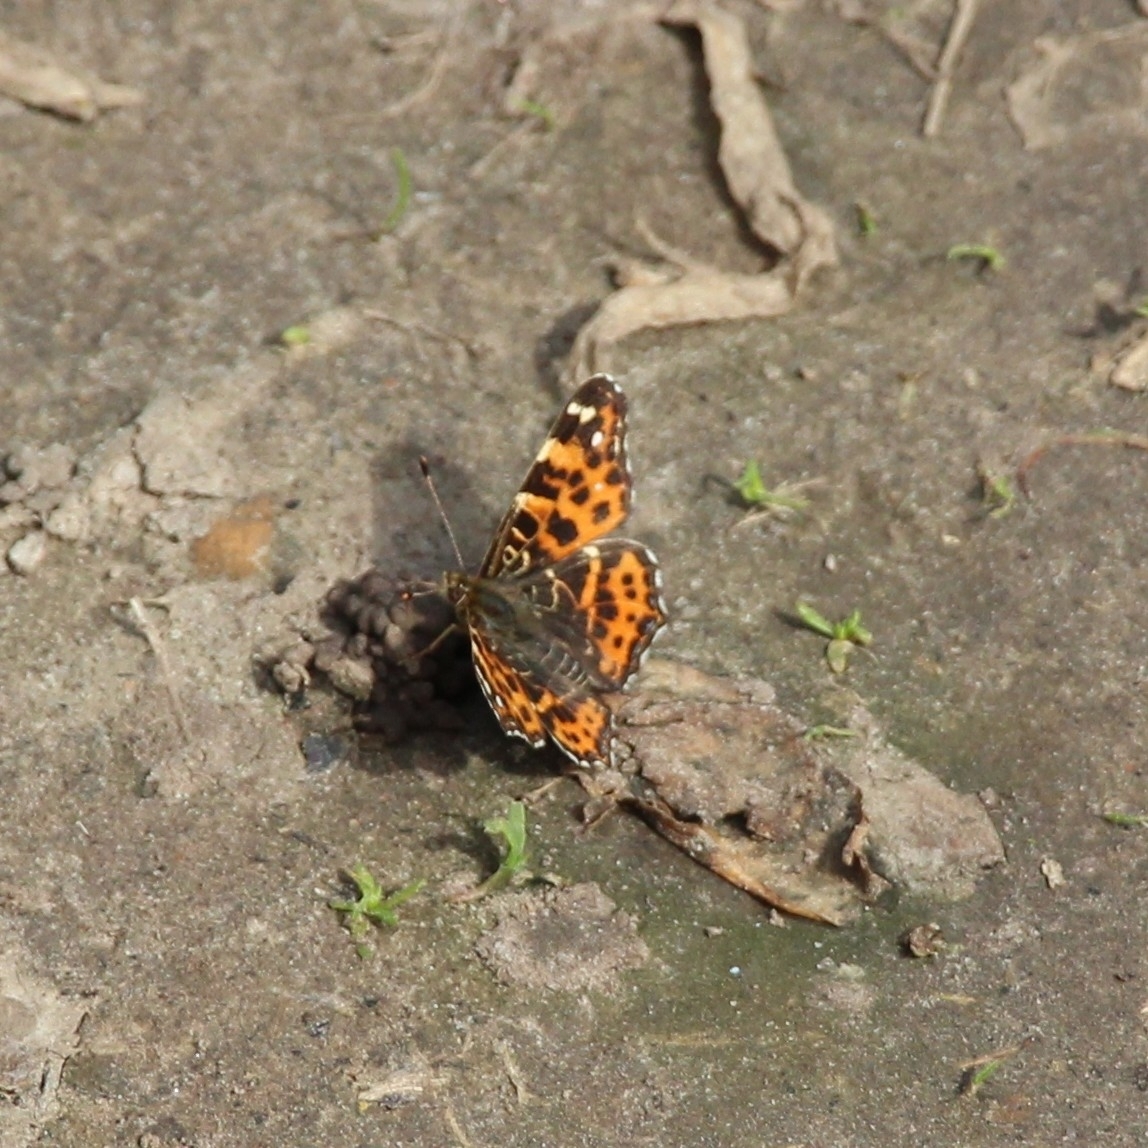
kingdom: Animalia
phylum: Arthropoda
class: Insecta
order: Lepidoptera
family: Nymphalidae
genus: Araschnia
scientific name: Araschnia levana
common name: Map butterfly
